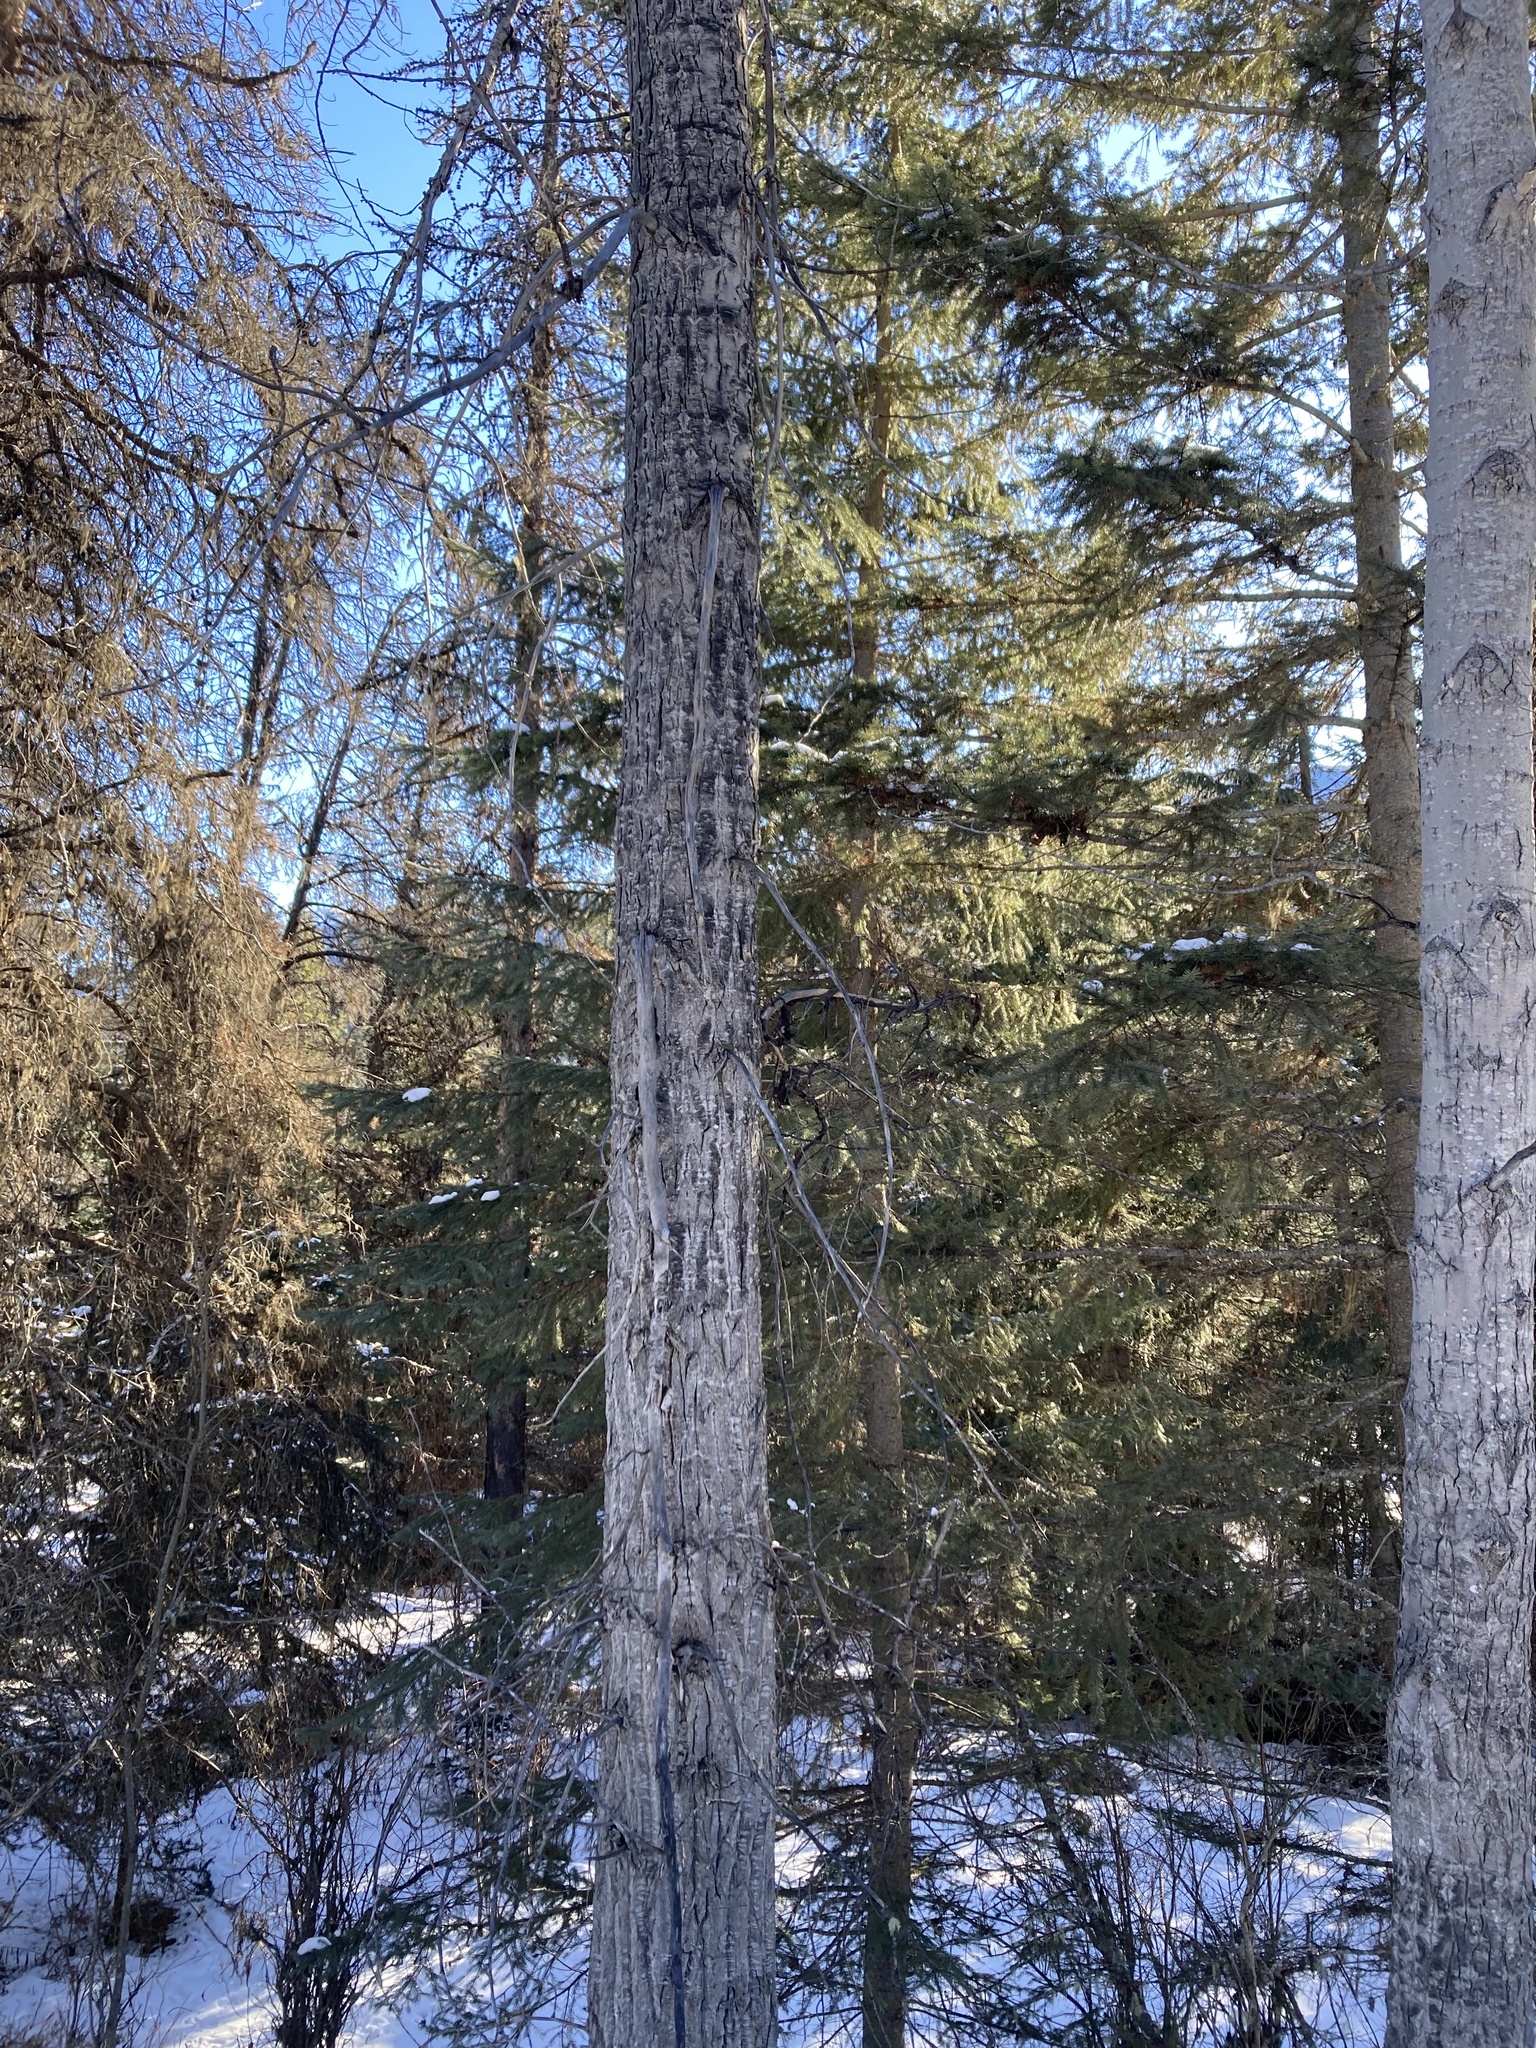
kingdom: Plantae
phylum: Tracheophyta
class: Magnoliopsida
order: Malpighiales
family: Salicaceae
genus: Populus
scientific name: Populus balsamifera
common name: Balsam poplar
